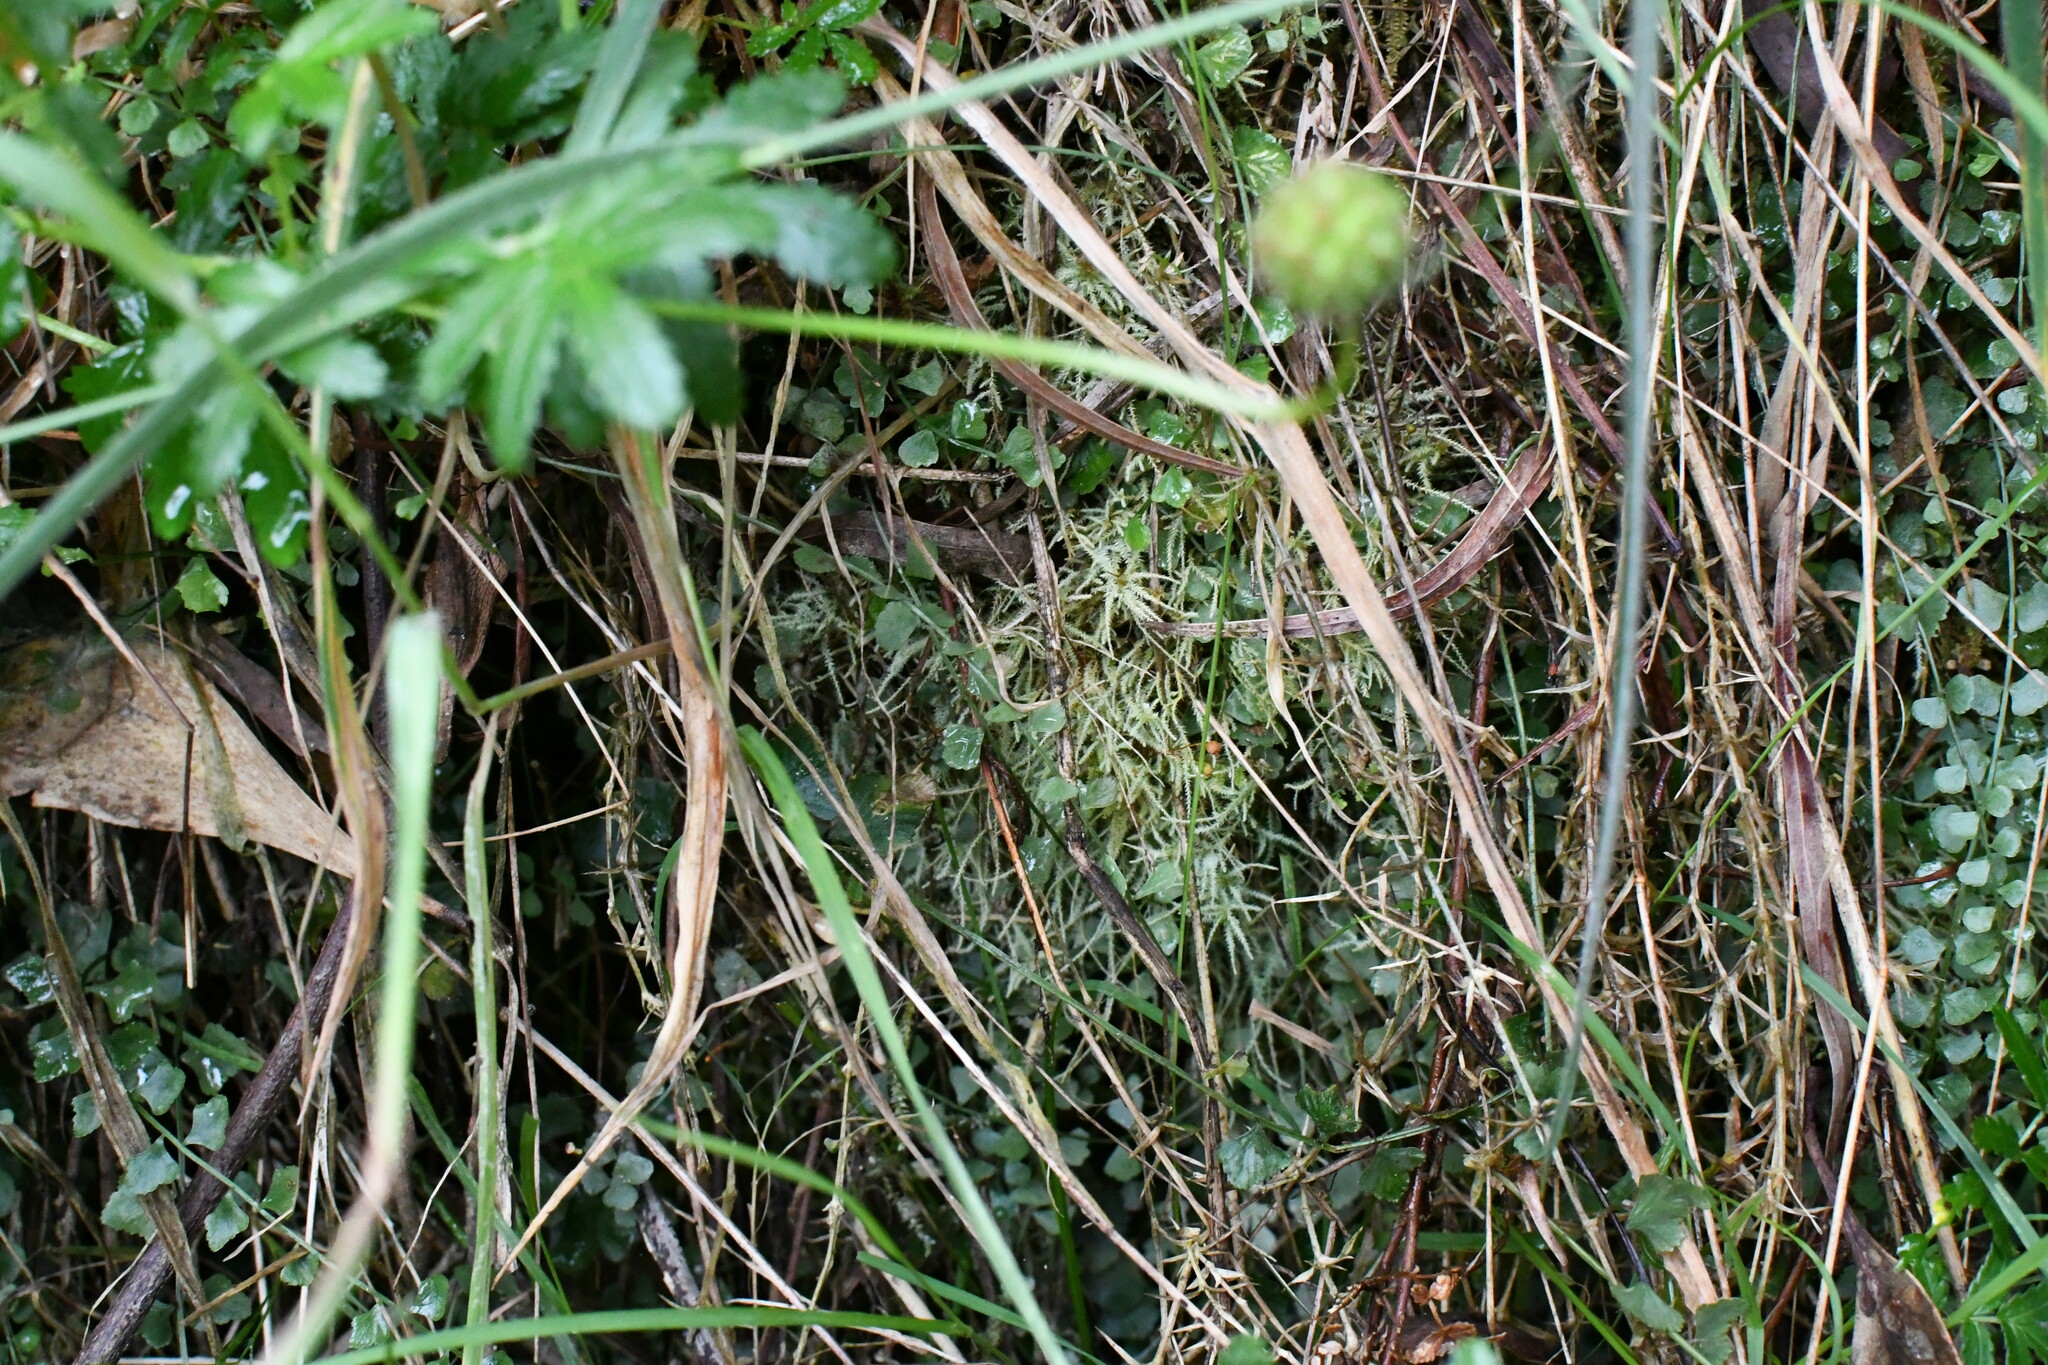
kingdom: Plantae
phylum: Tracheophyta
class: Polypodiopsida
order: Polypodiales
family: Aspleniaceae
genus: Asplenium
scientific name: Asplenium flabellifolium
